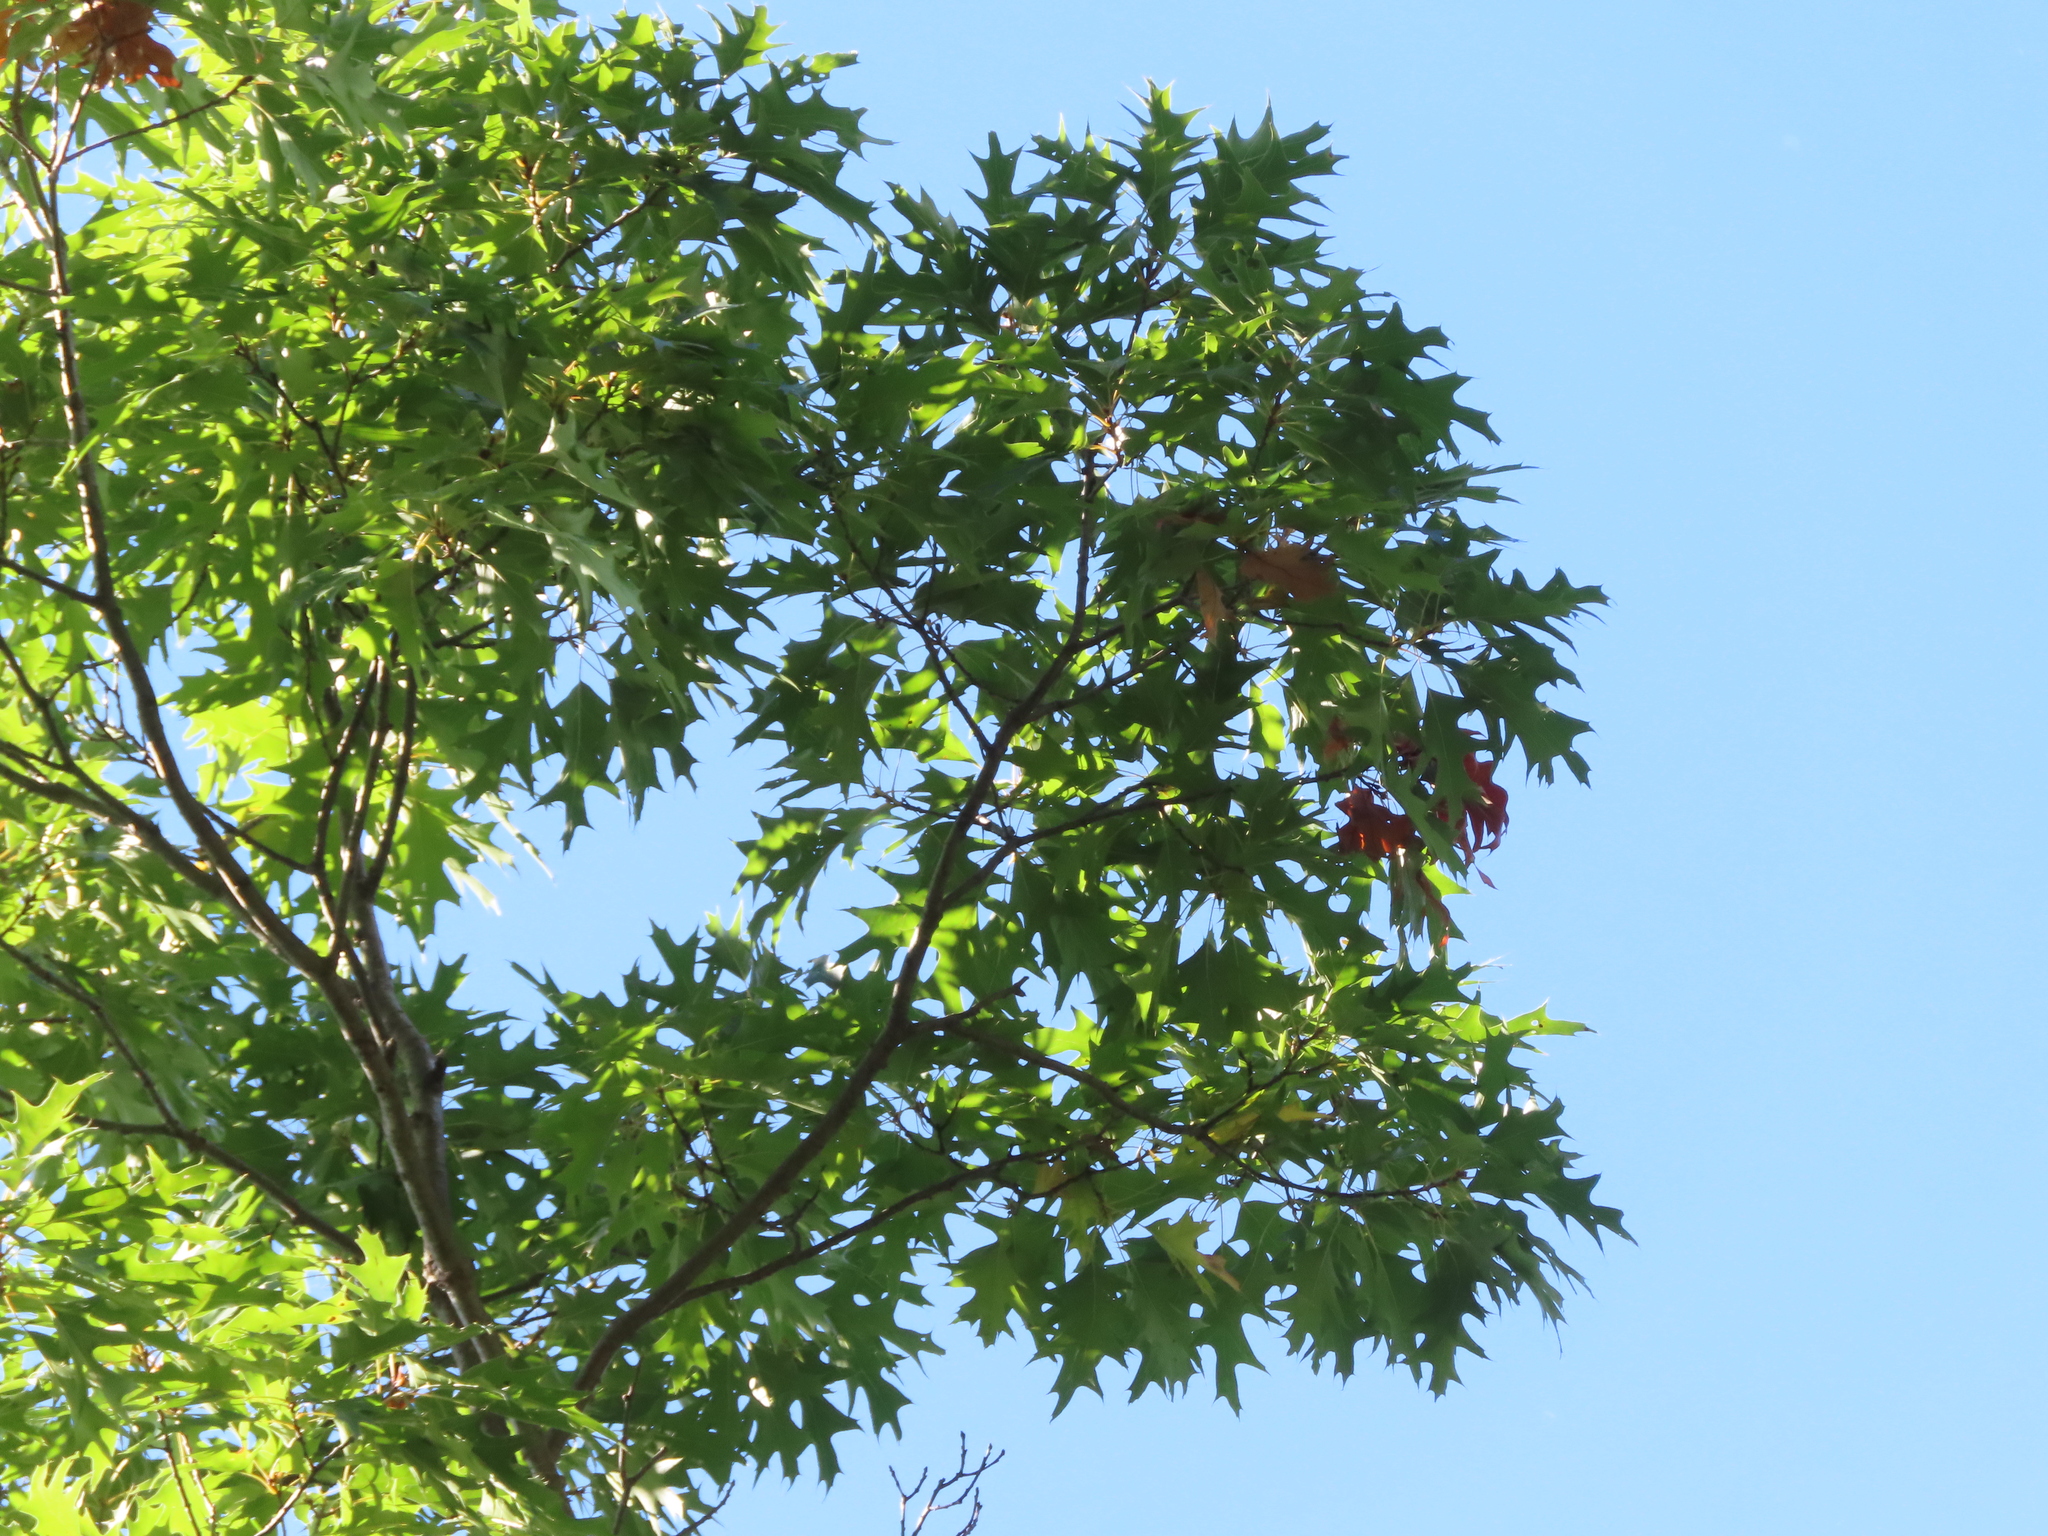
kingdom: Plantae
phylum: Tracheophyta
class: Magnoliopsida
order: Fagales
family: Fagaceae
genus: Quercus
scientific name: Quercus ellipsoidalis
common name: Hill's oak
